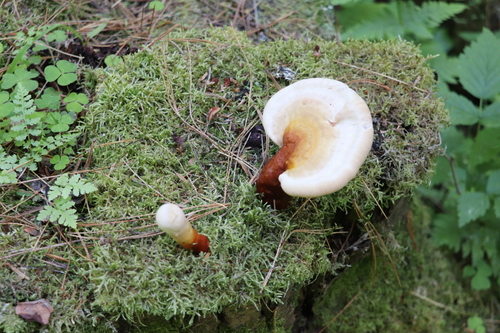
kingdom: Fungi
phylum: Basidiomycota
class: Agaricomycetes
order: Polyporales
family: Polyporaceae
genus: Ganoderma
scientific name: Ganoderma lucidum
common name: Lacquered bracket
